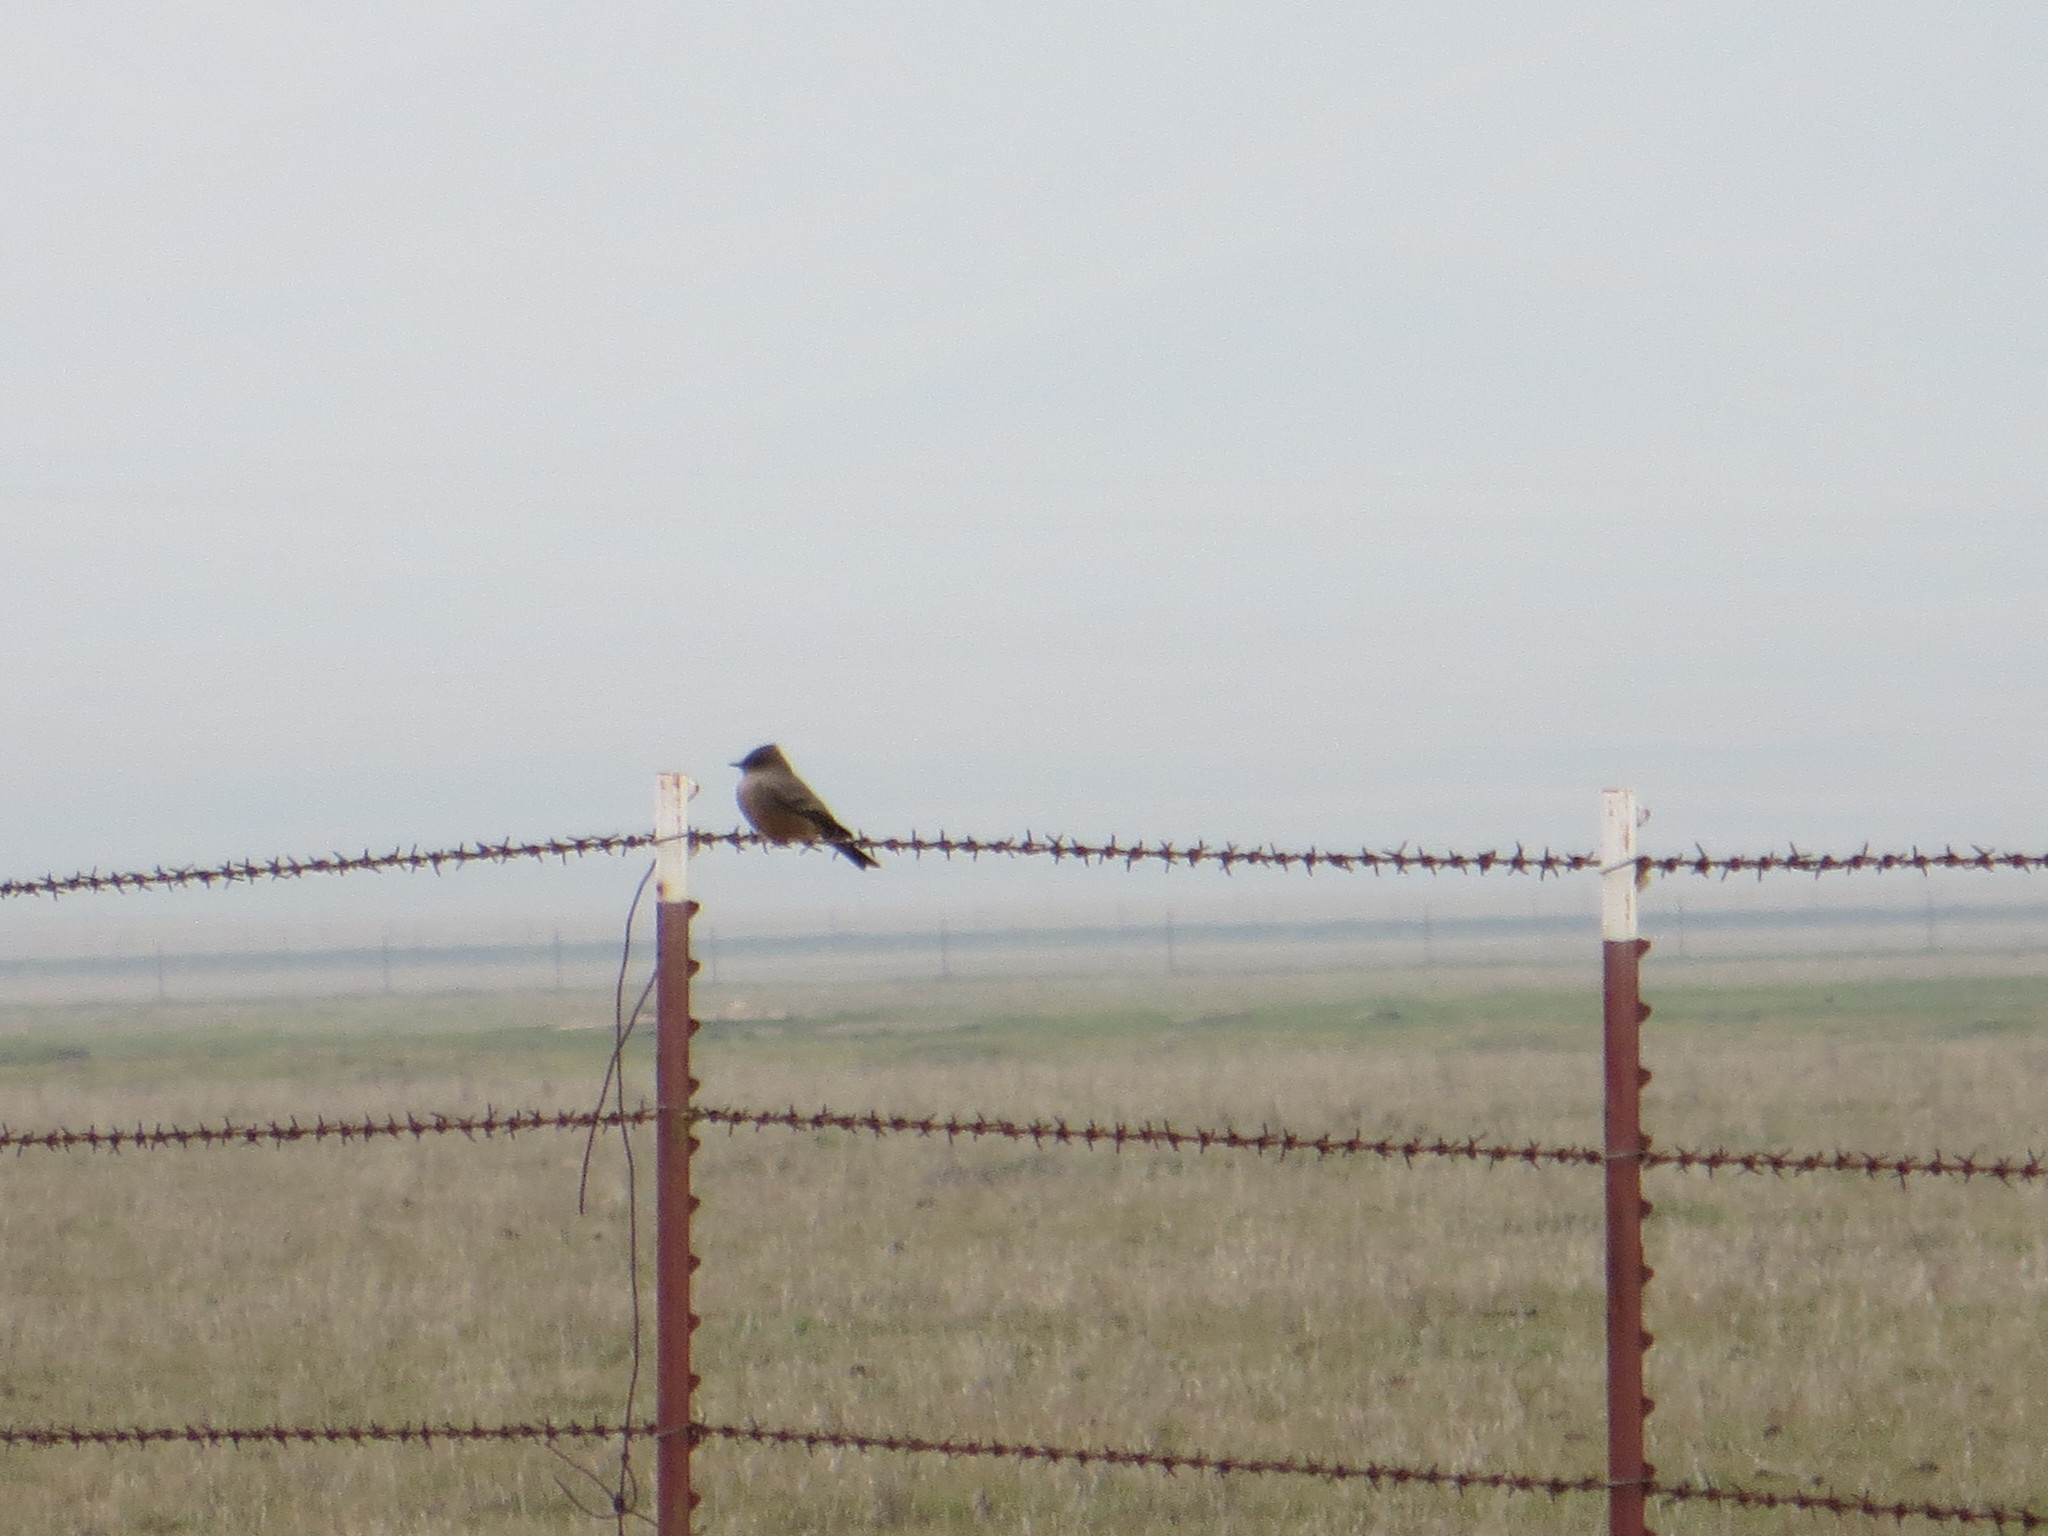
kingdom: Animalia
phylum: Chordata
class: Aves
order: Passeriformes
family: Tyrannidae
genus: Sayornis
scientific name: Sayornis saya
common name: Say's phoebe
